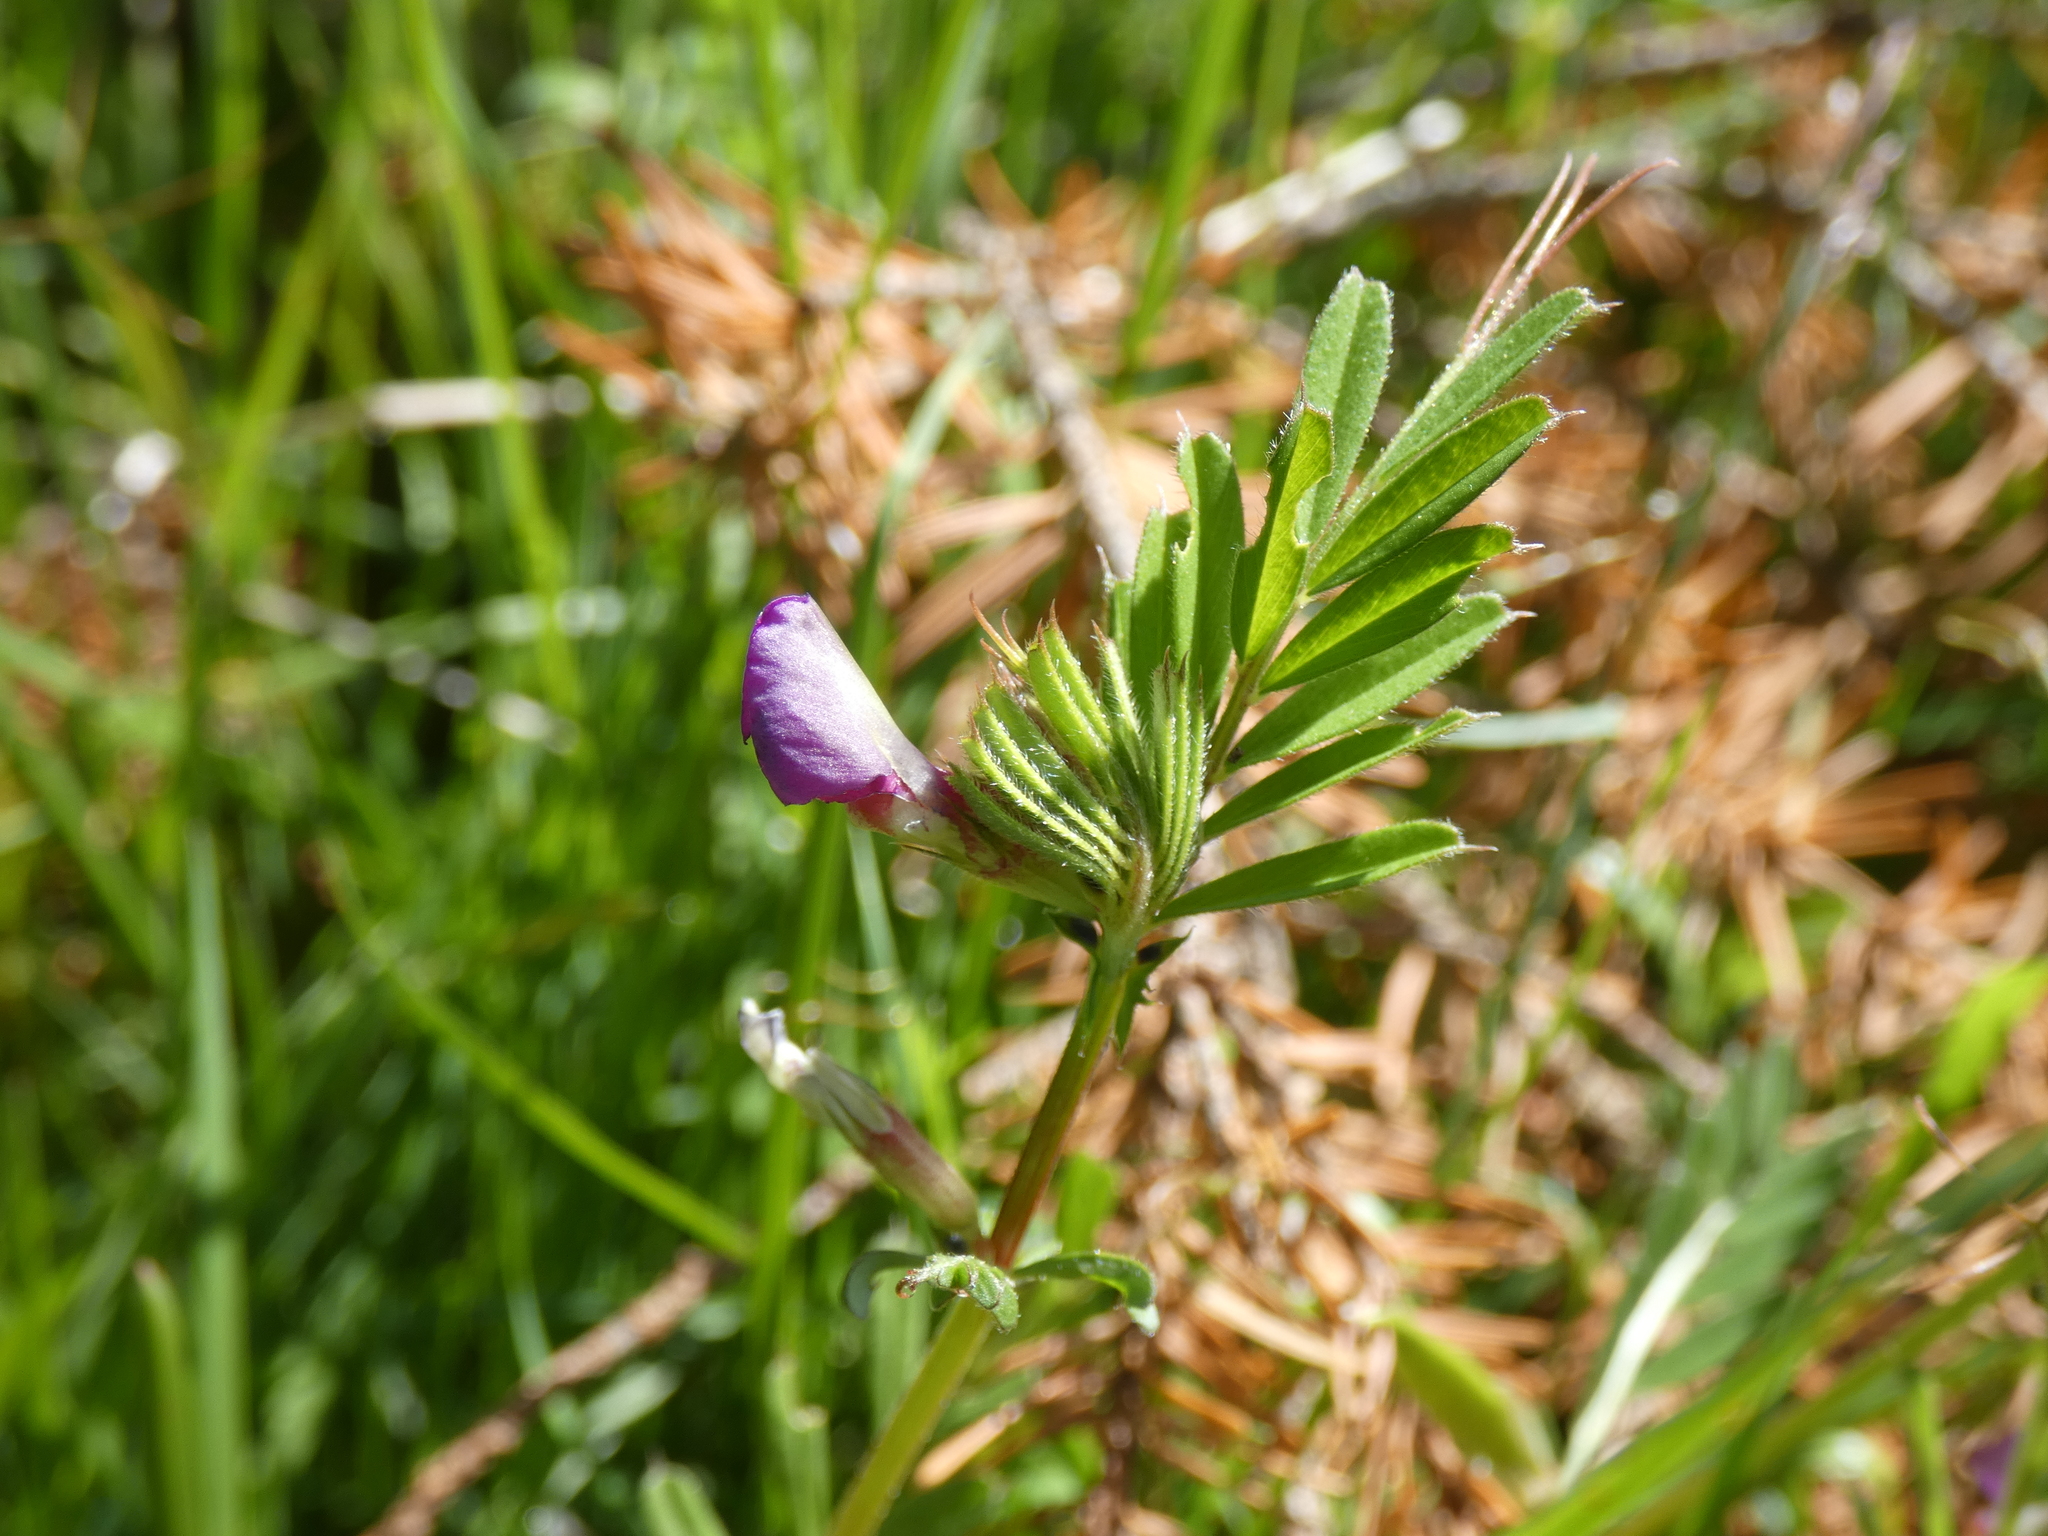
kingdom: Plantae
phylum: Tracheophyta
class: Magnoliopsida
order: Fabales
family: Fabaceae
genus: Vicia
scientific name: Vicia sativa
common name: Garden vetch
